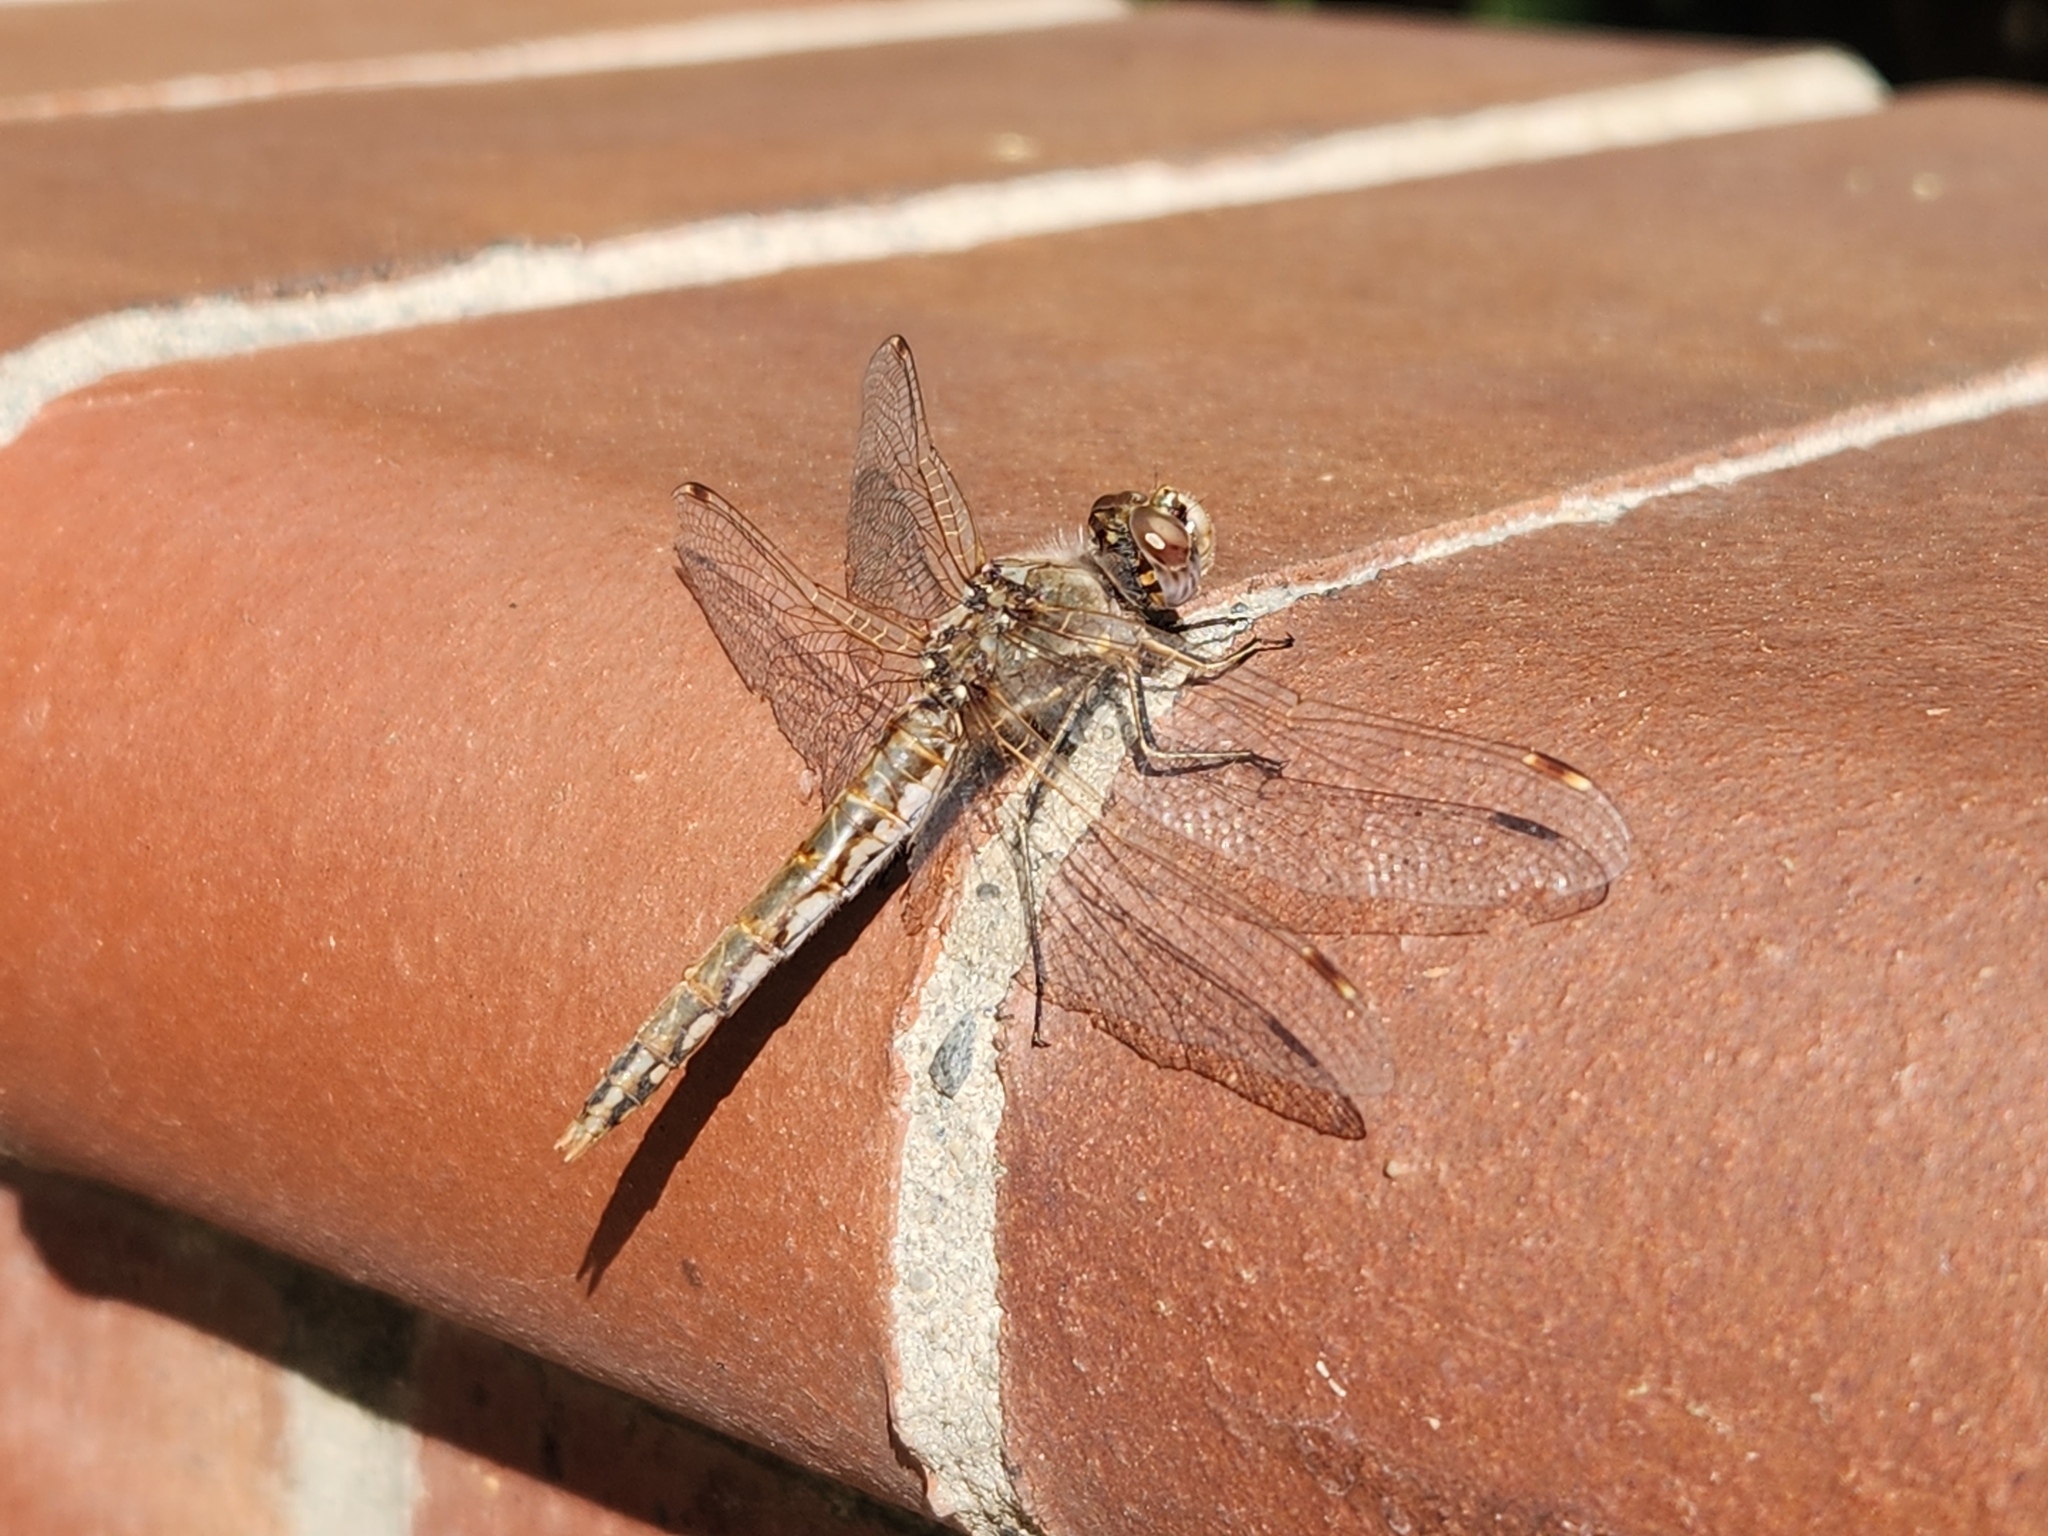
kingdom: Animalia
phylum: Arthropoda
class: Insecta
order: Odonata
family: Libellulidae
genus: Sympetrum
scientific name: Sympetrum corruptum
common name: Variegated meadowhawk
